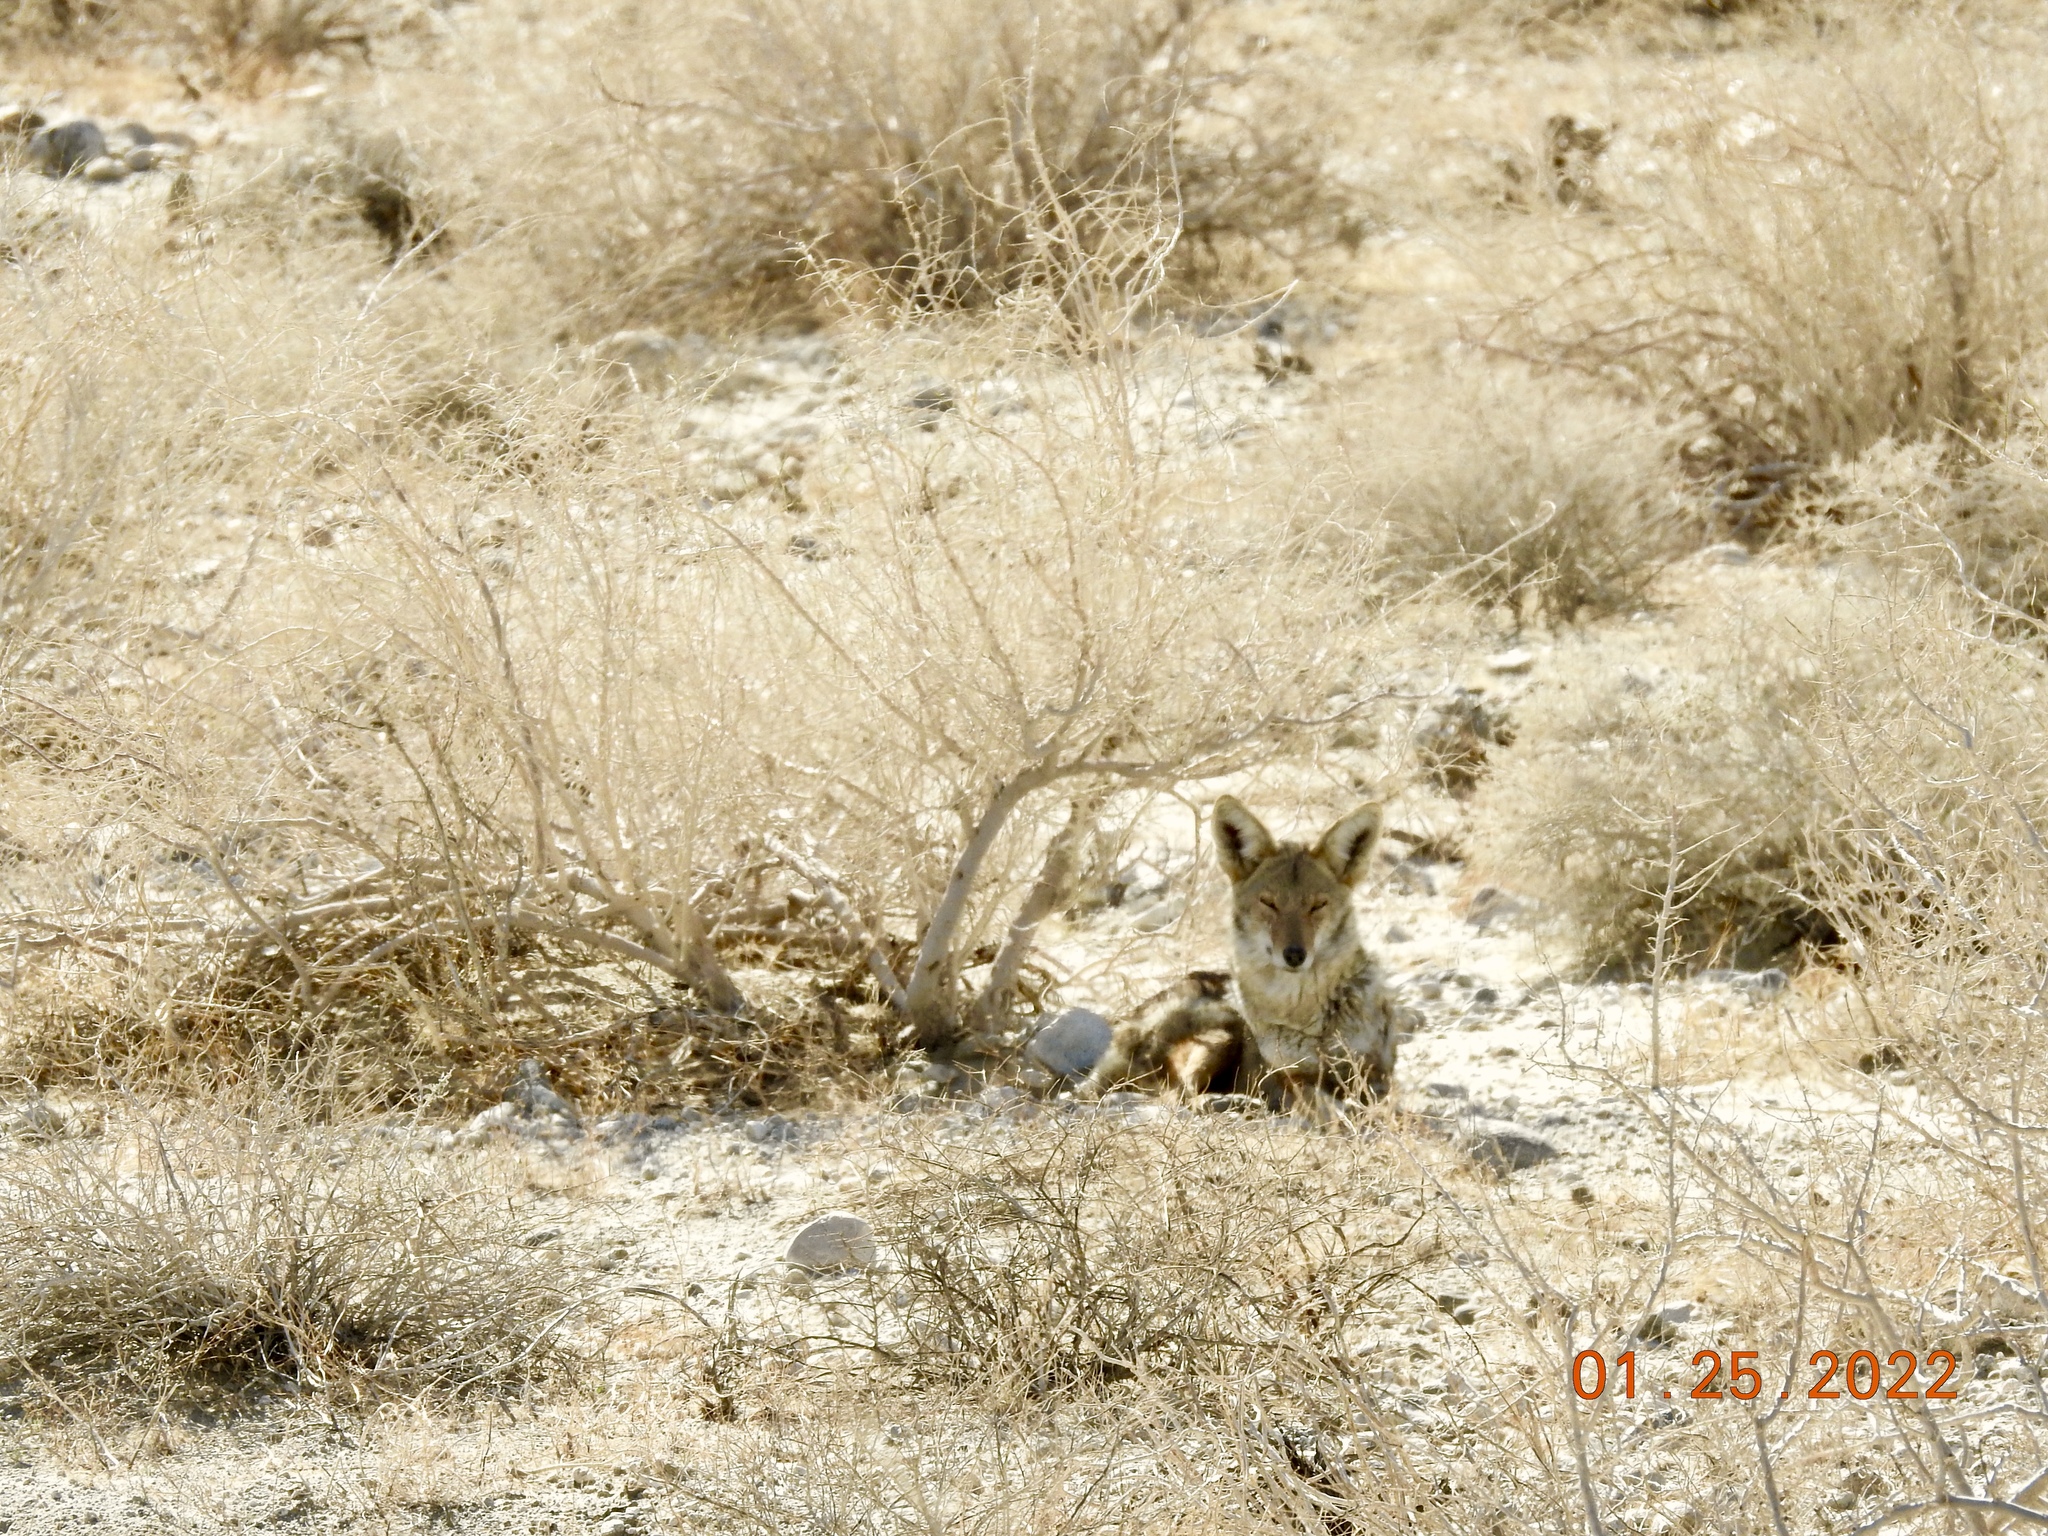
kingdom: Animalia
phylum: Chordata
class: Mammalia
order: Carnivora
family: Canidae
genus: Canis
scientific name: Canis latrans
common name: Coyote
